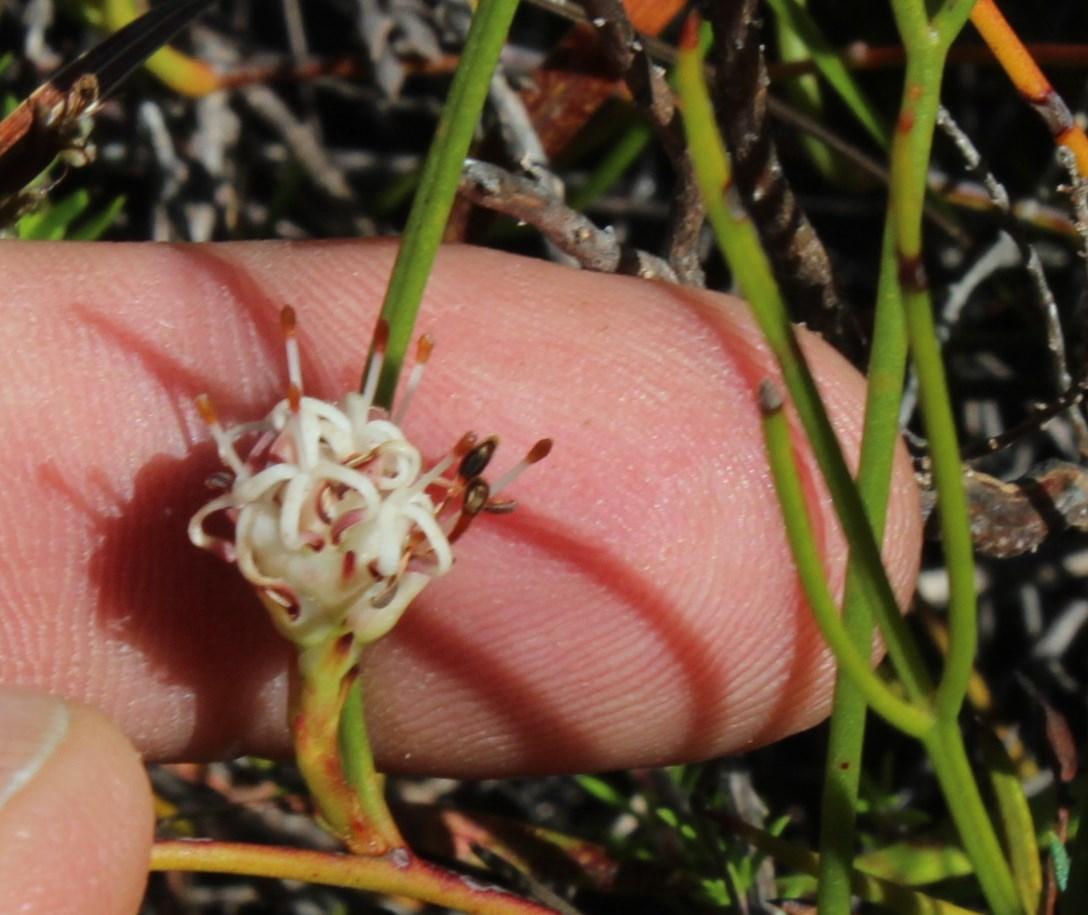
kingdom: Plantae
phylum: Tracheophyta
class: Magnoliopsida
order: Proteales
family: Proteaceae
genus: Serruria
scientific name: Serruria flagellifolia
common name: Houwhoek spiderhead
